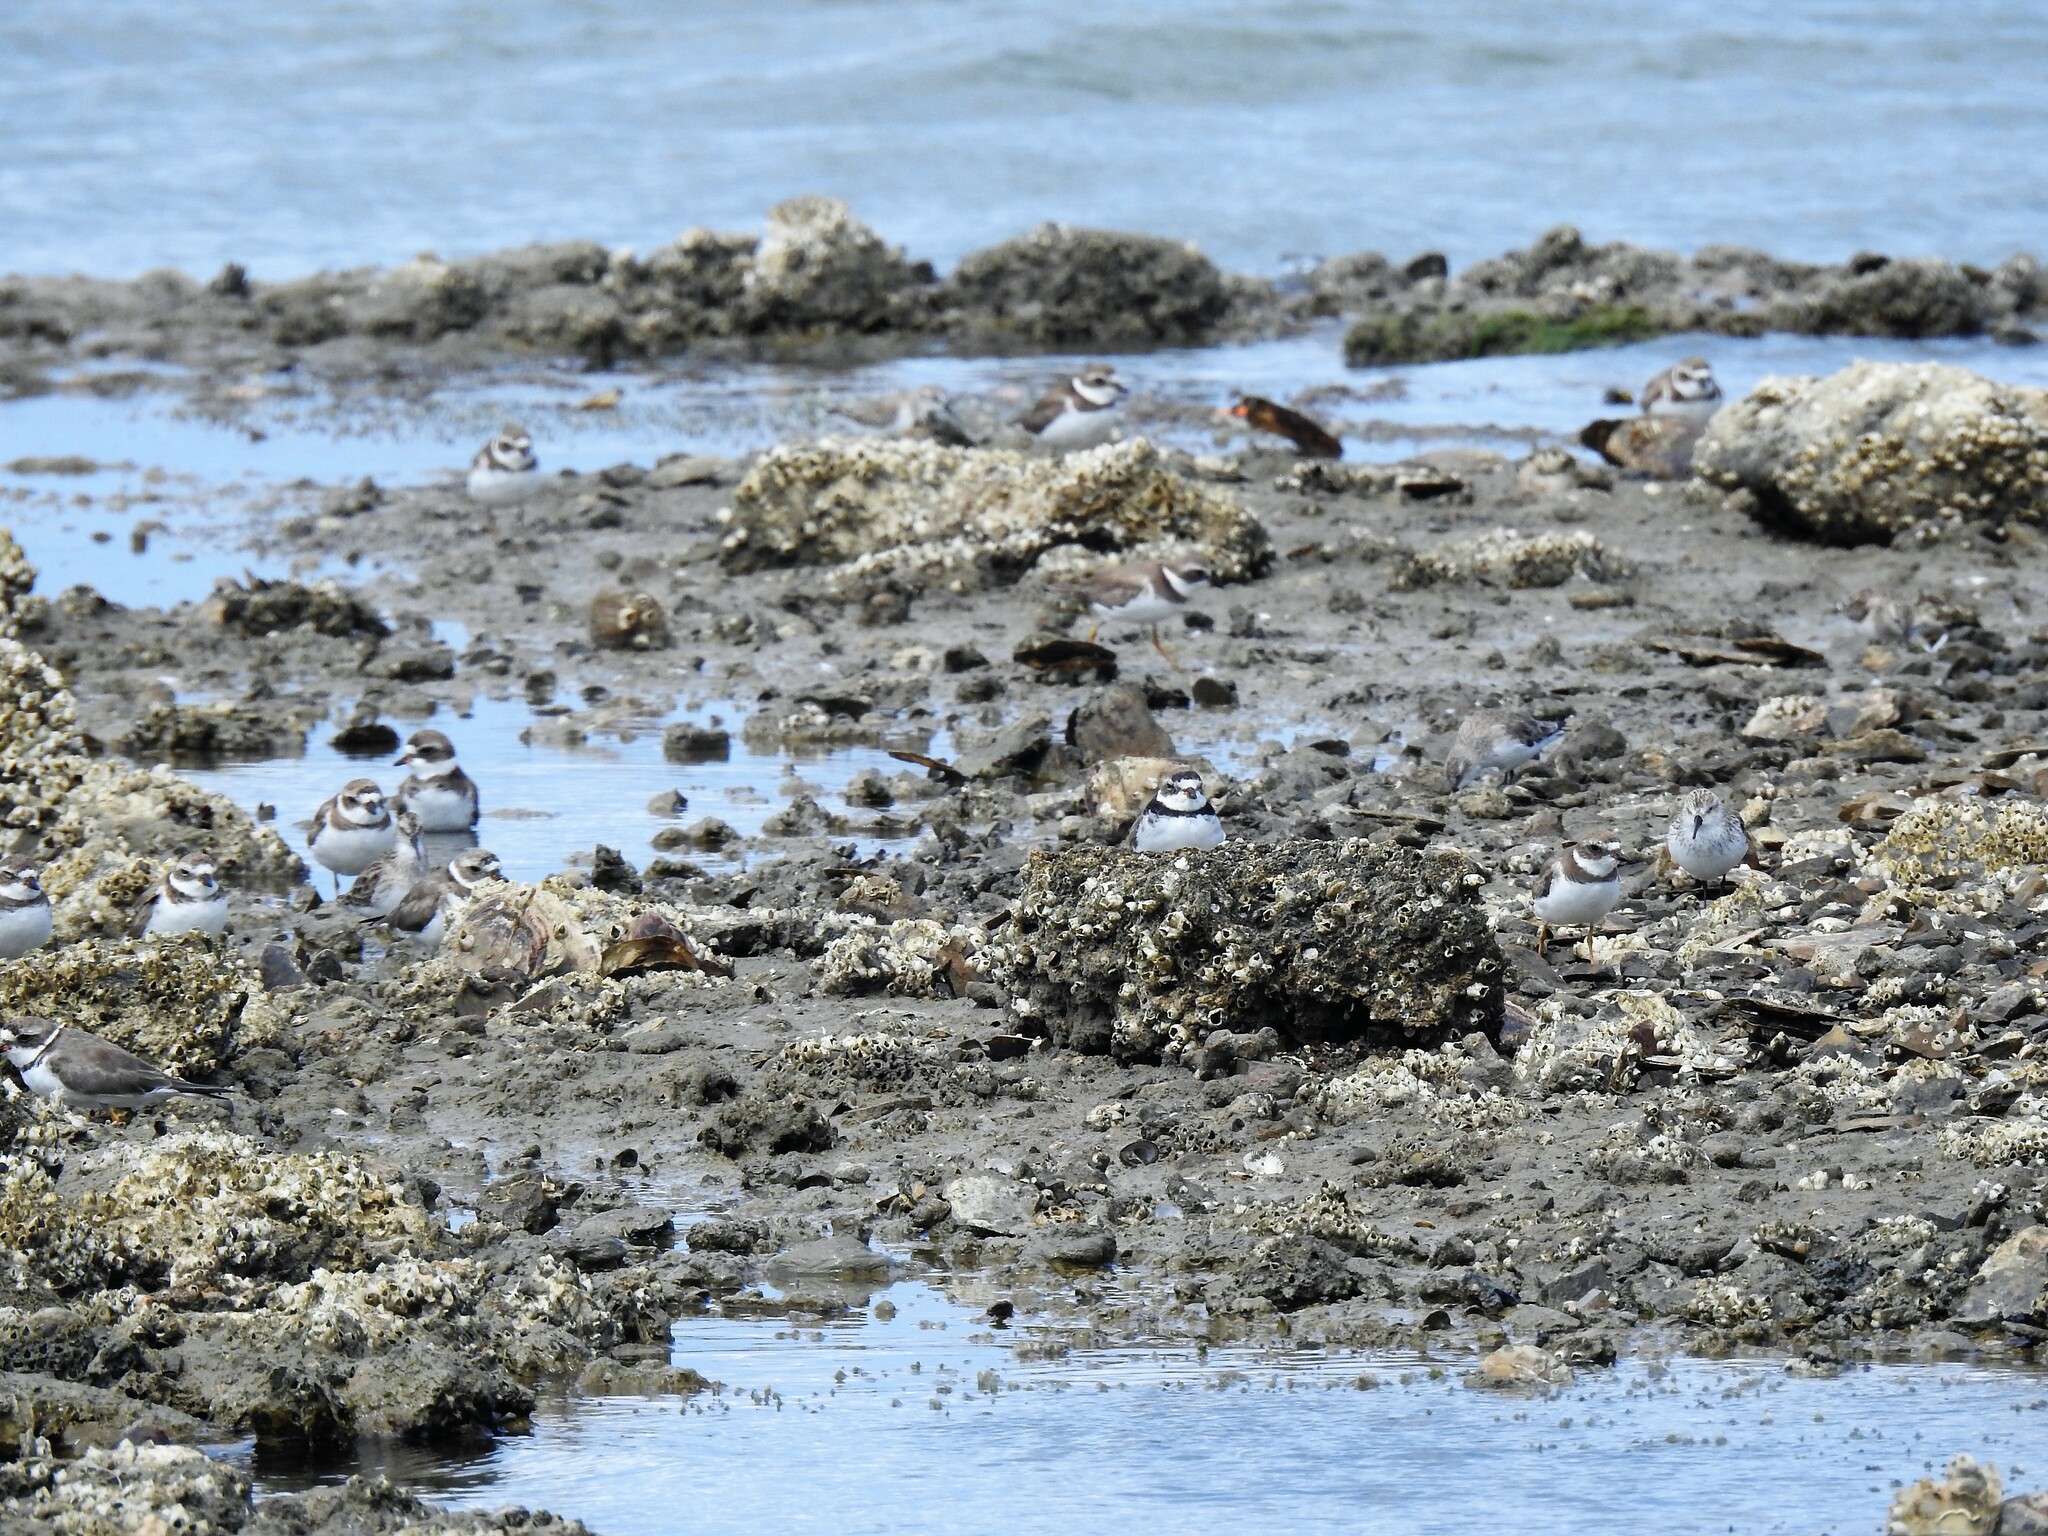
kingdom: Animalia
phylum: Chordata
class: Aves
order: Charadriiformes
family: Charadriidae
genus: Charadrius
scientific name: Charadrius semipalmatus
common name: Semipalmated plover
